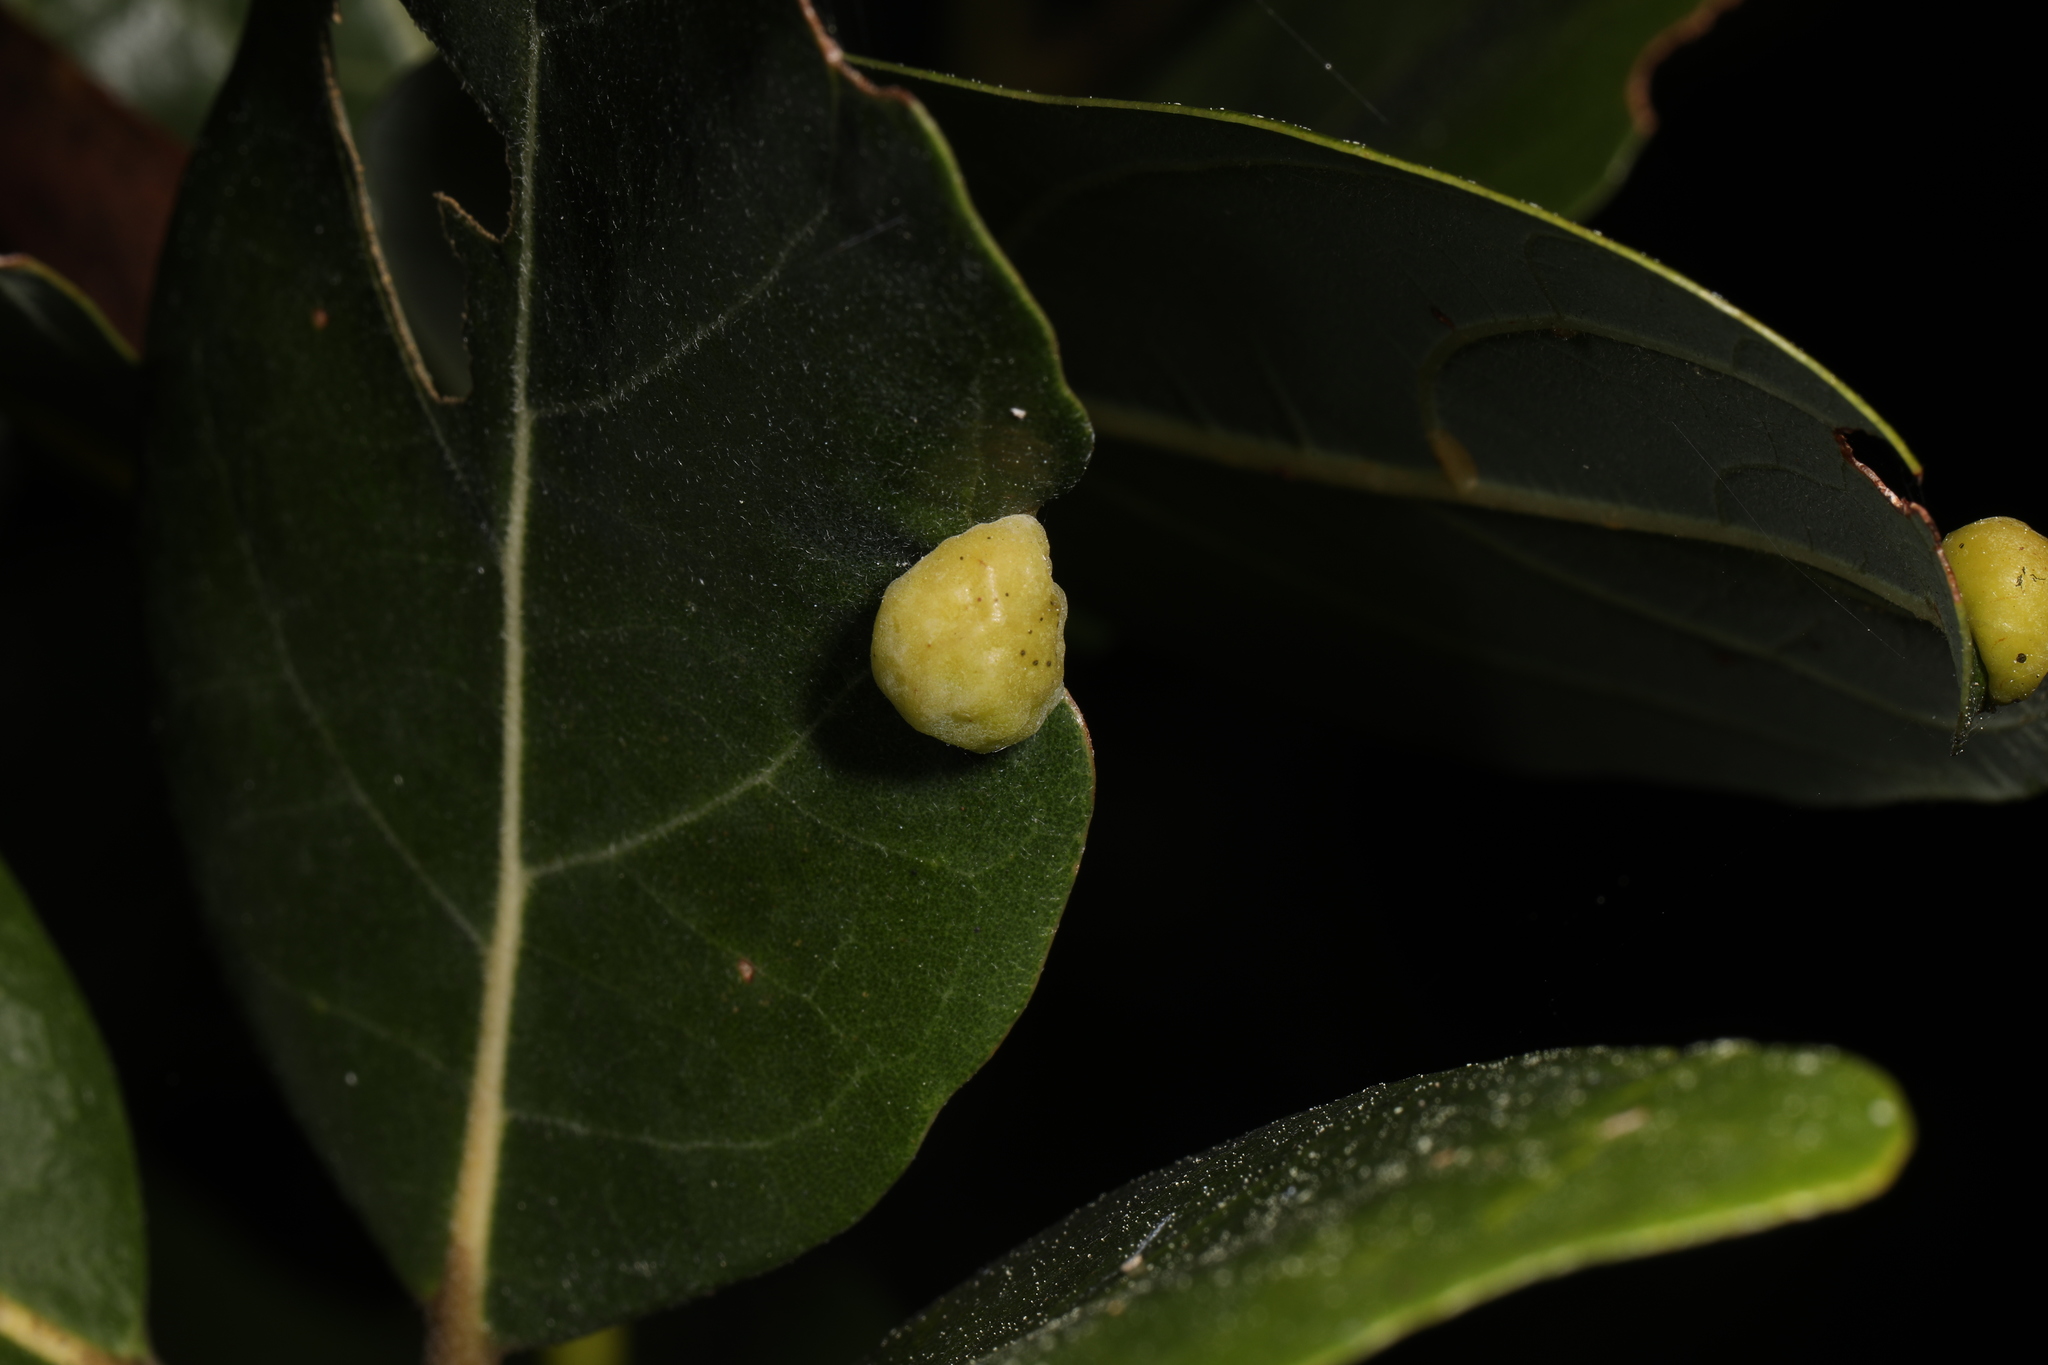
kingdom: Animalia
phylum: Arthropoda
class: Insecta
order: Hemiptera
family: Triozidae
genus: Trioza
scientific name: Trioza magnoliae
